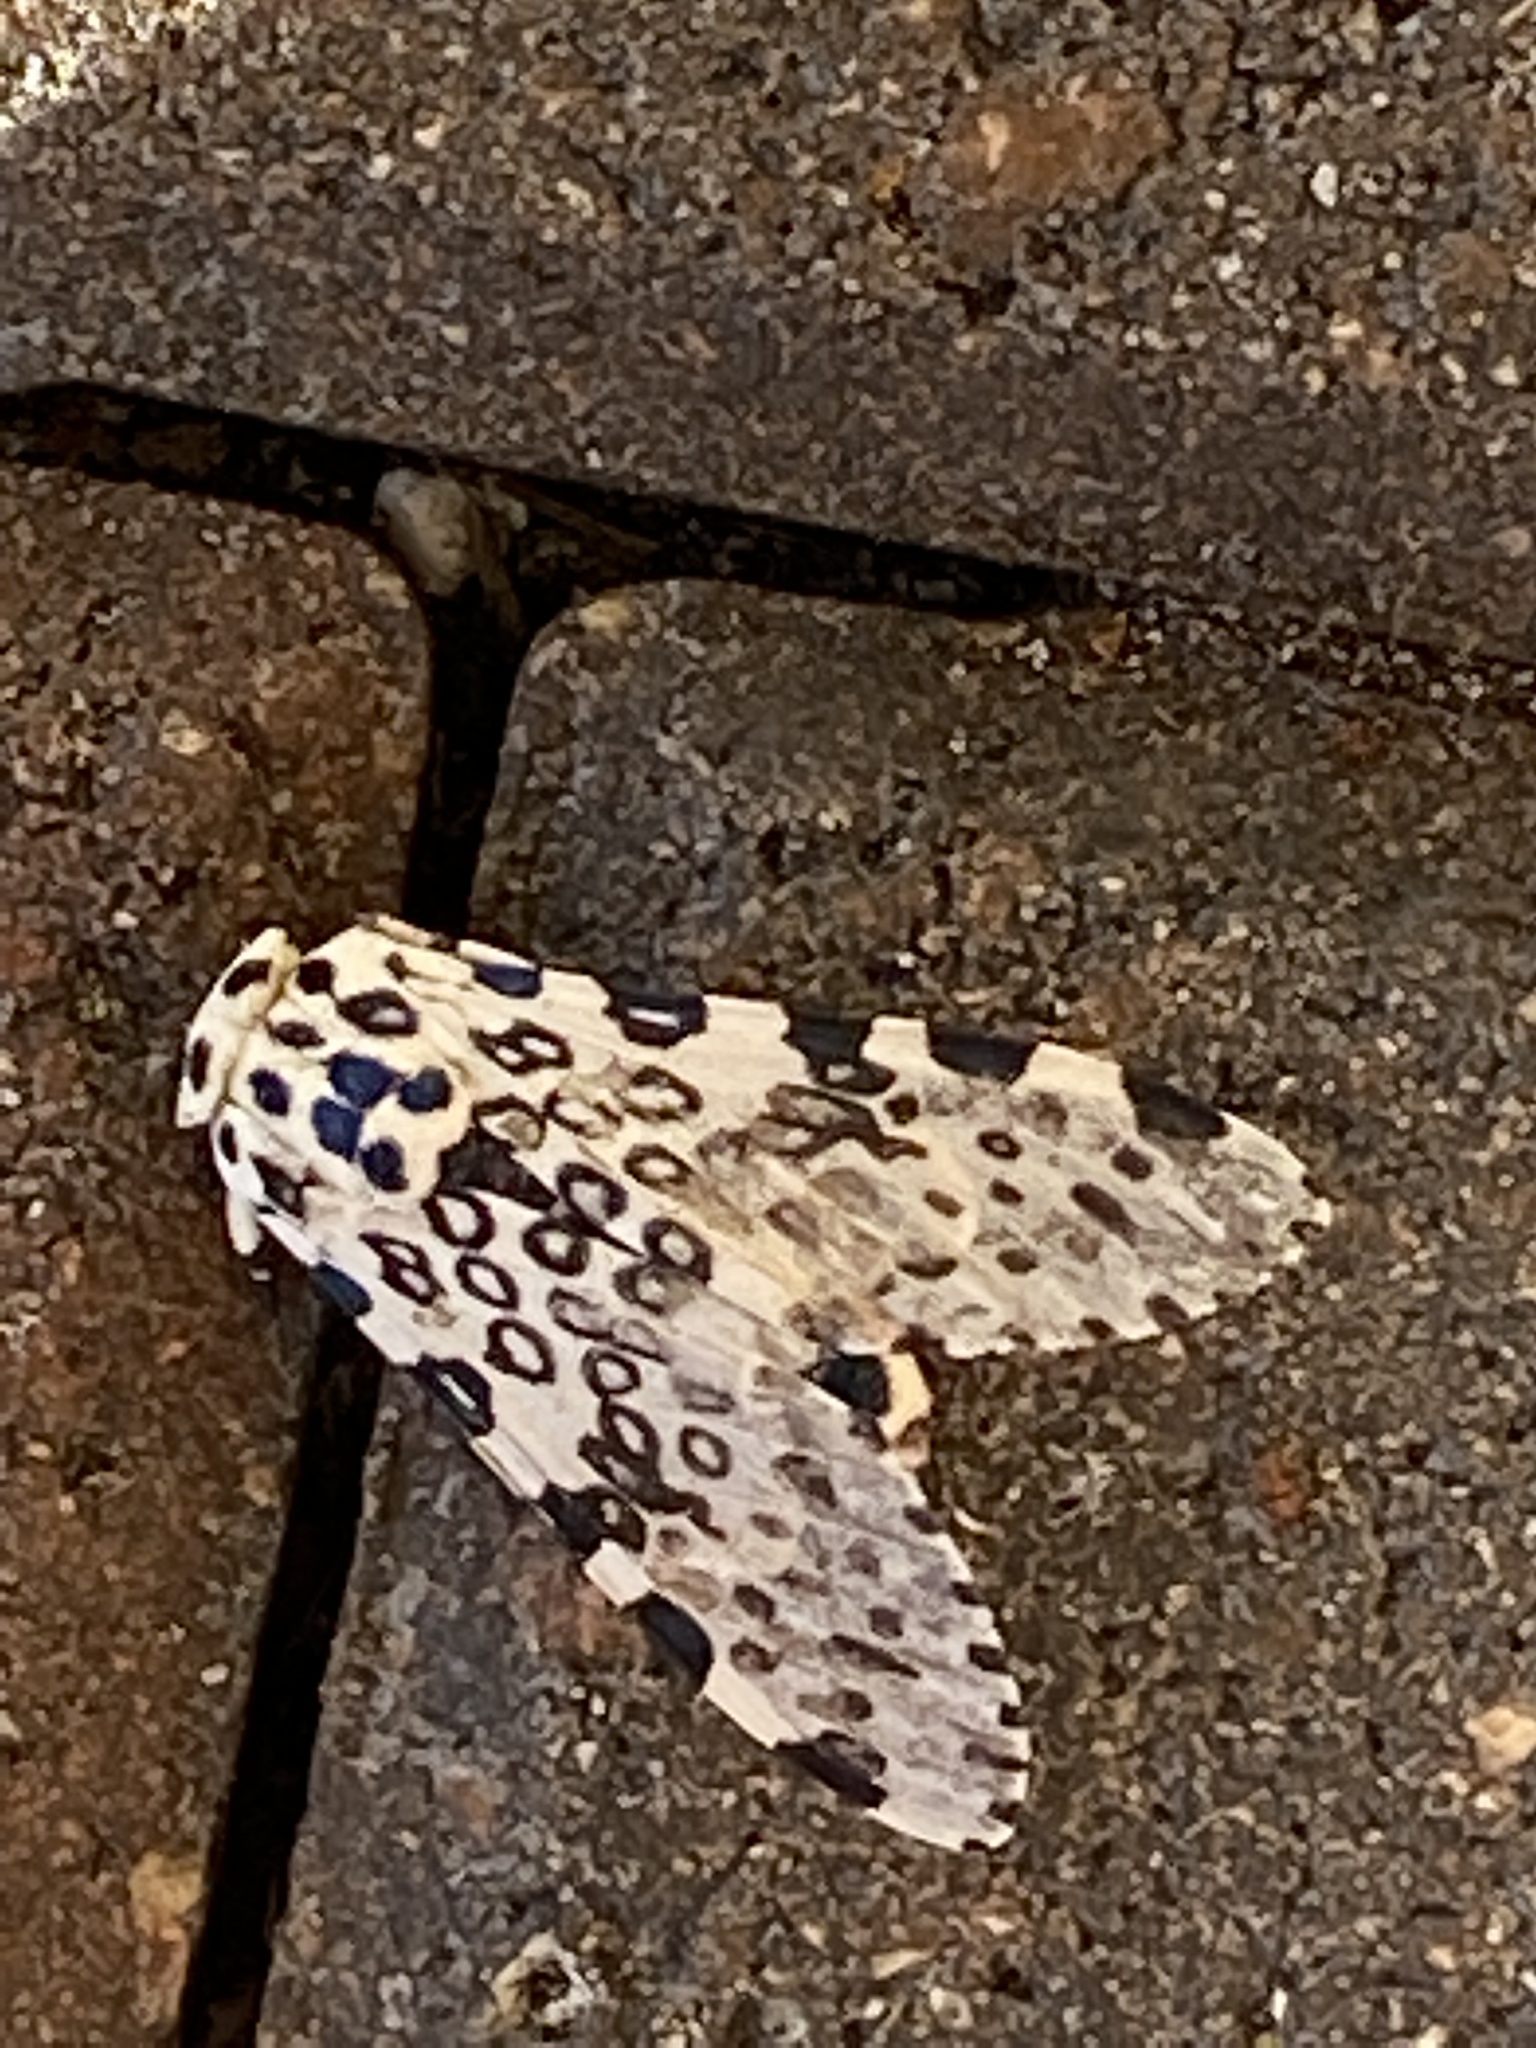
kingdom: Animalia
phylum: Arthropoda
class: Insecta
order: Lepidoptera
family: Erebidae
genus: Hypercompe
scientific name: Hypercompe scribonia
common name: Giant leopard moth
